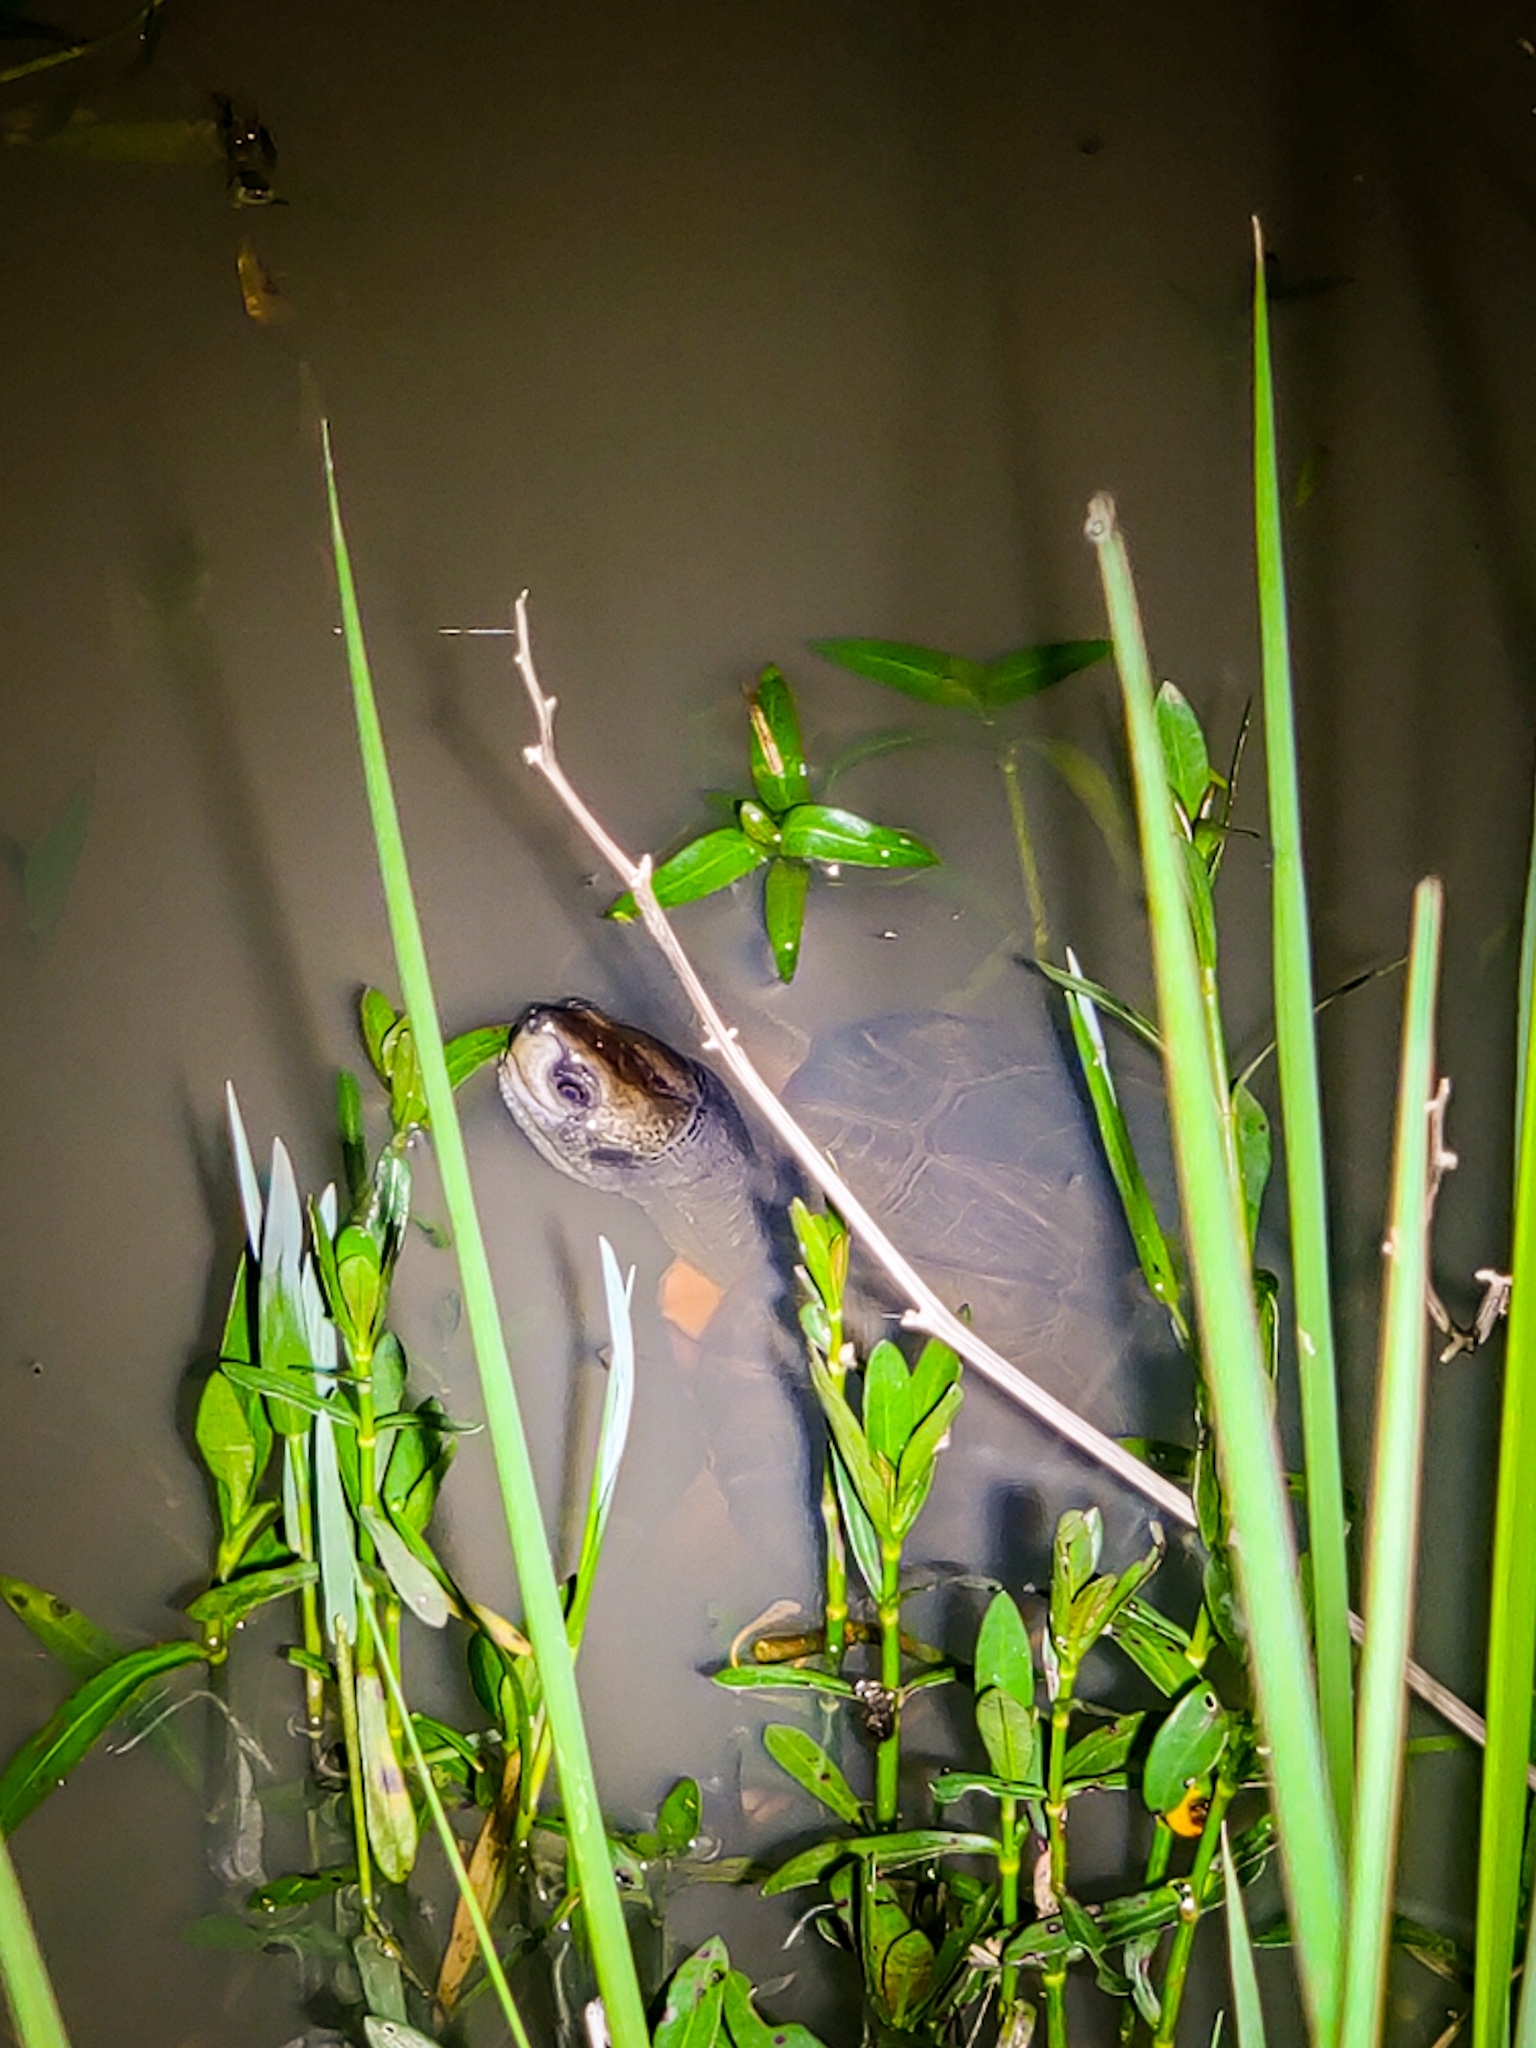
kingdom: Animalia
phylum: Chordata
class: Testudines
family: Geoemydidae
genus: Melanochelys
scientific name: Melanochelys trijuga
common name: Indian black turtle
